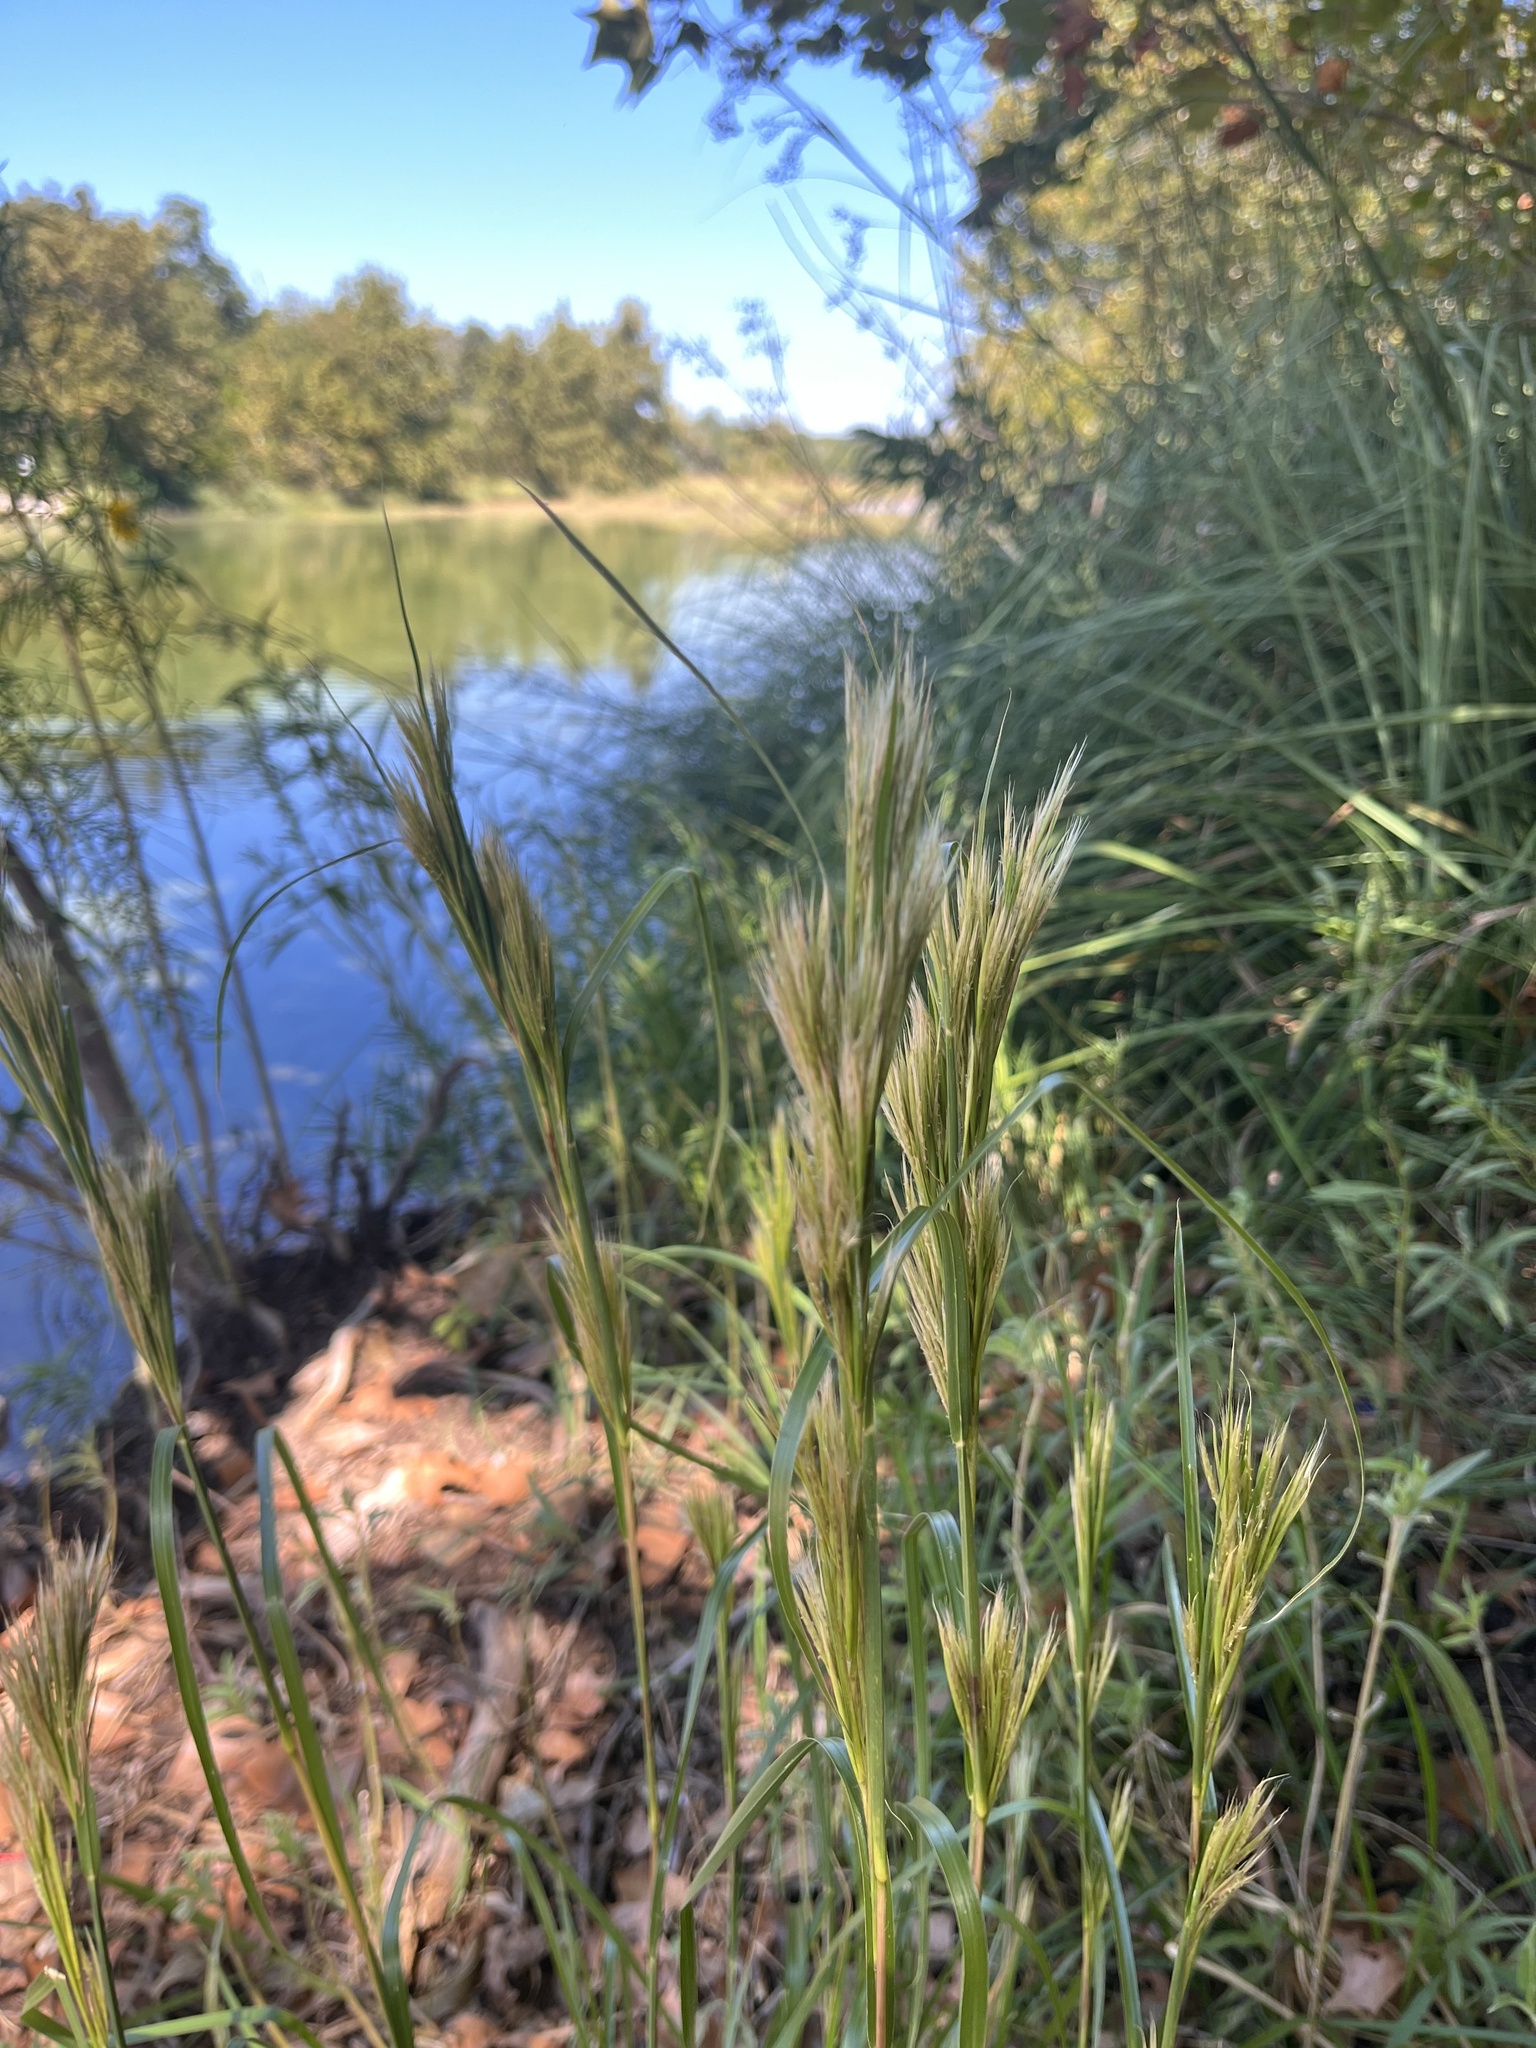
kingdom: Plantae
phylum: Tracheophyta
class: Liliopsida
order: Poales
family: Poaceae
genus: Andropogon
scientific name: Andropogon tenuispatheus
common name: Bushy bluestem
